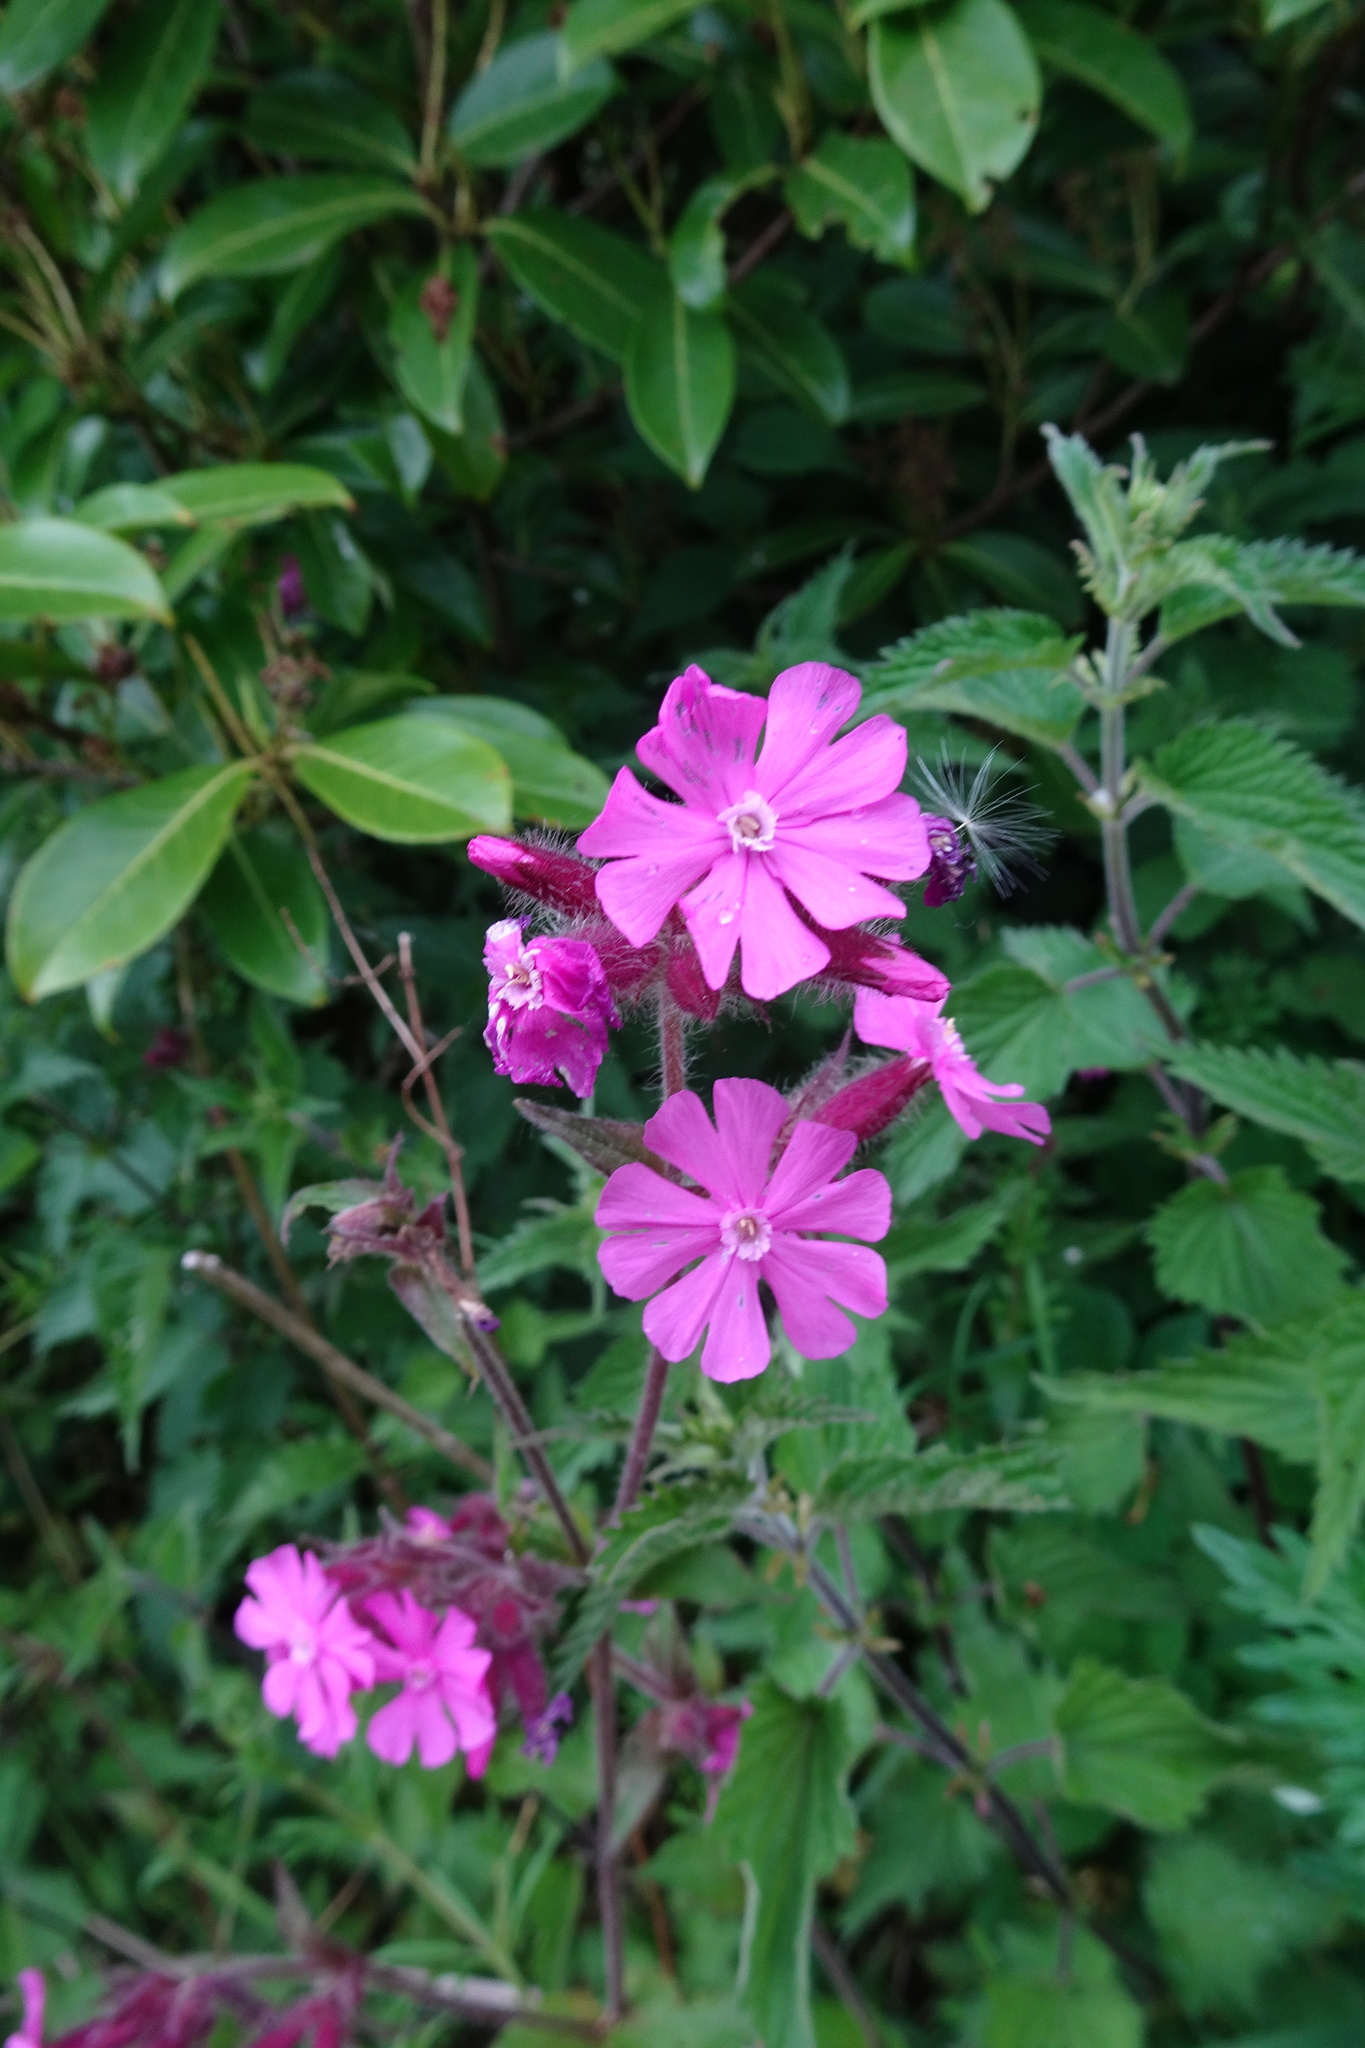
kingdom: Plantae
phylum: Tracheophyta
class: Magnoliopsida
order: Caryophyllales
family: Caryophyllaceae
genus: Silene
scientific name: Silene dioica
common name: Red campion
